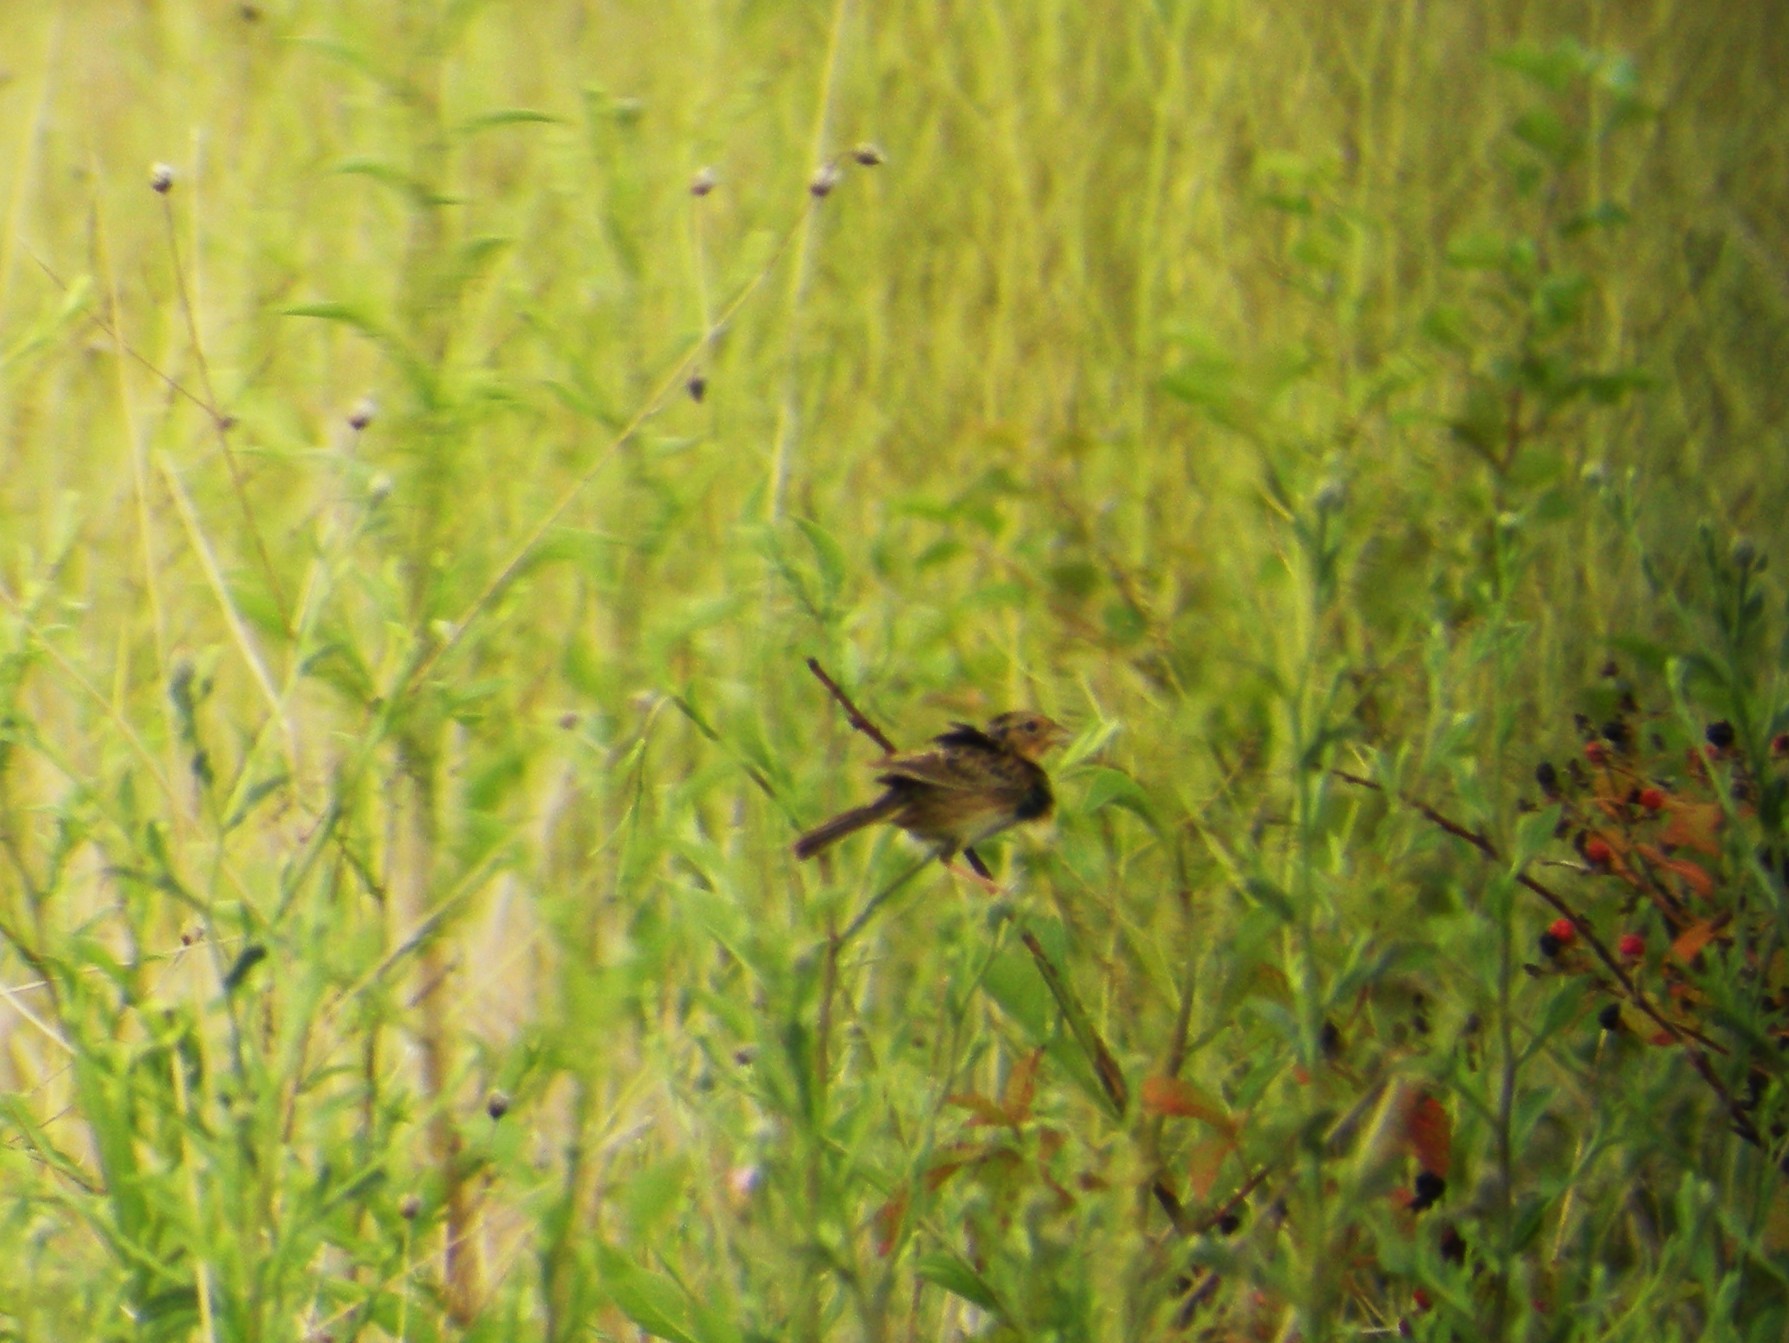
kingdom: Animalia
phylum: Chordata
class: Aves
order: Passeriformes
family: Passerellidae
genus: Ammodramus
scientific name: Ammodramus savannarum
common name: Grasshopper sparrow
